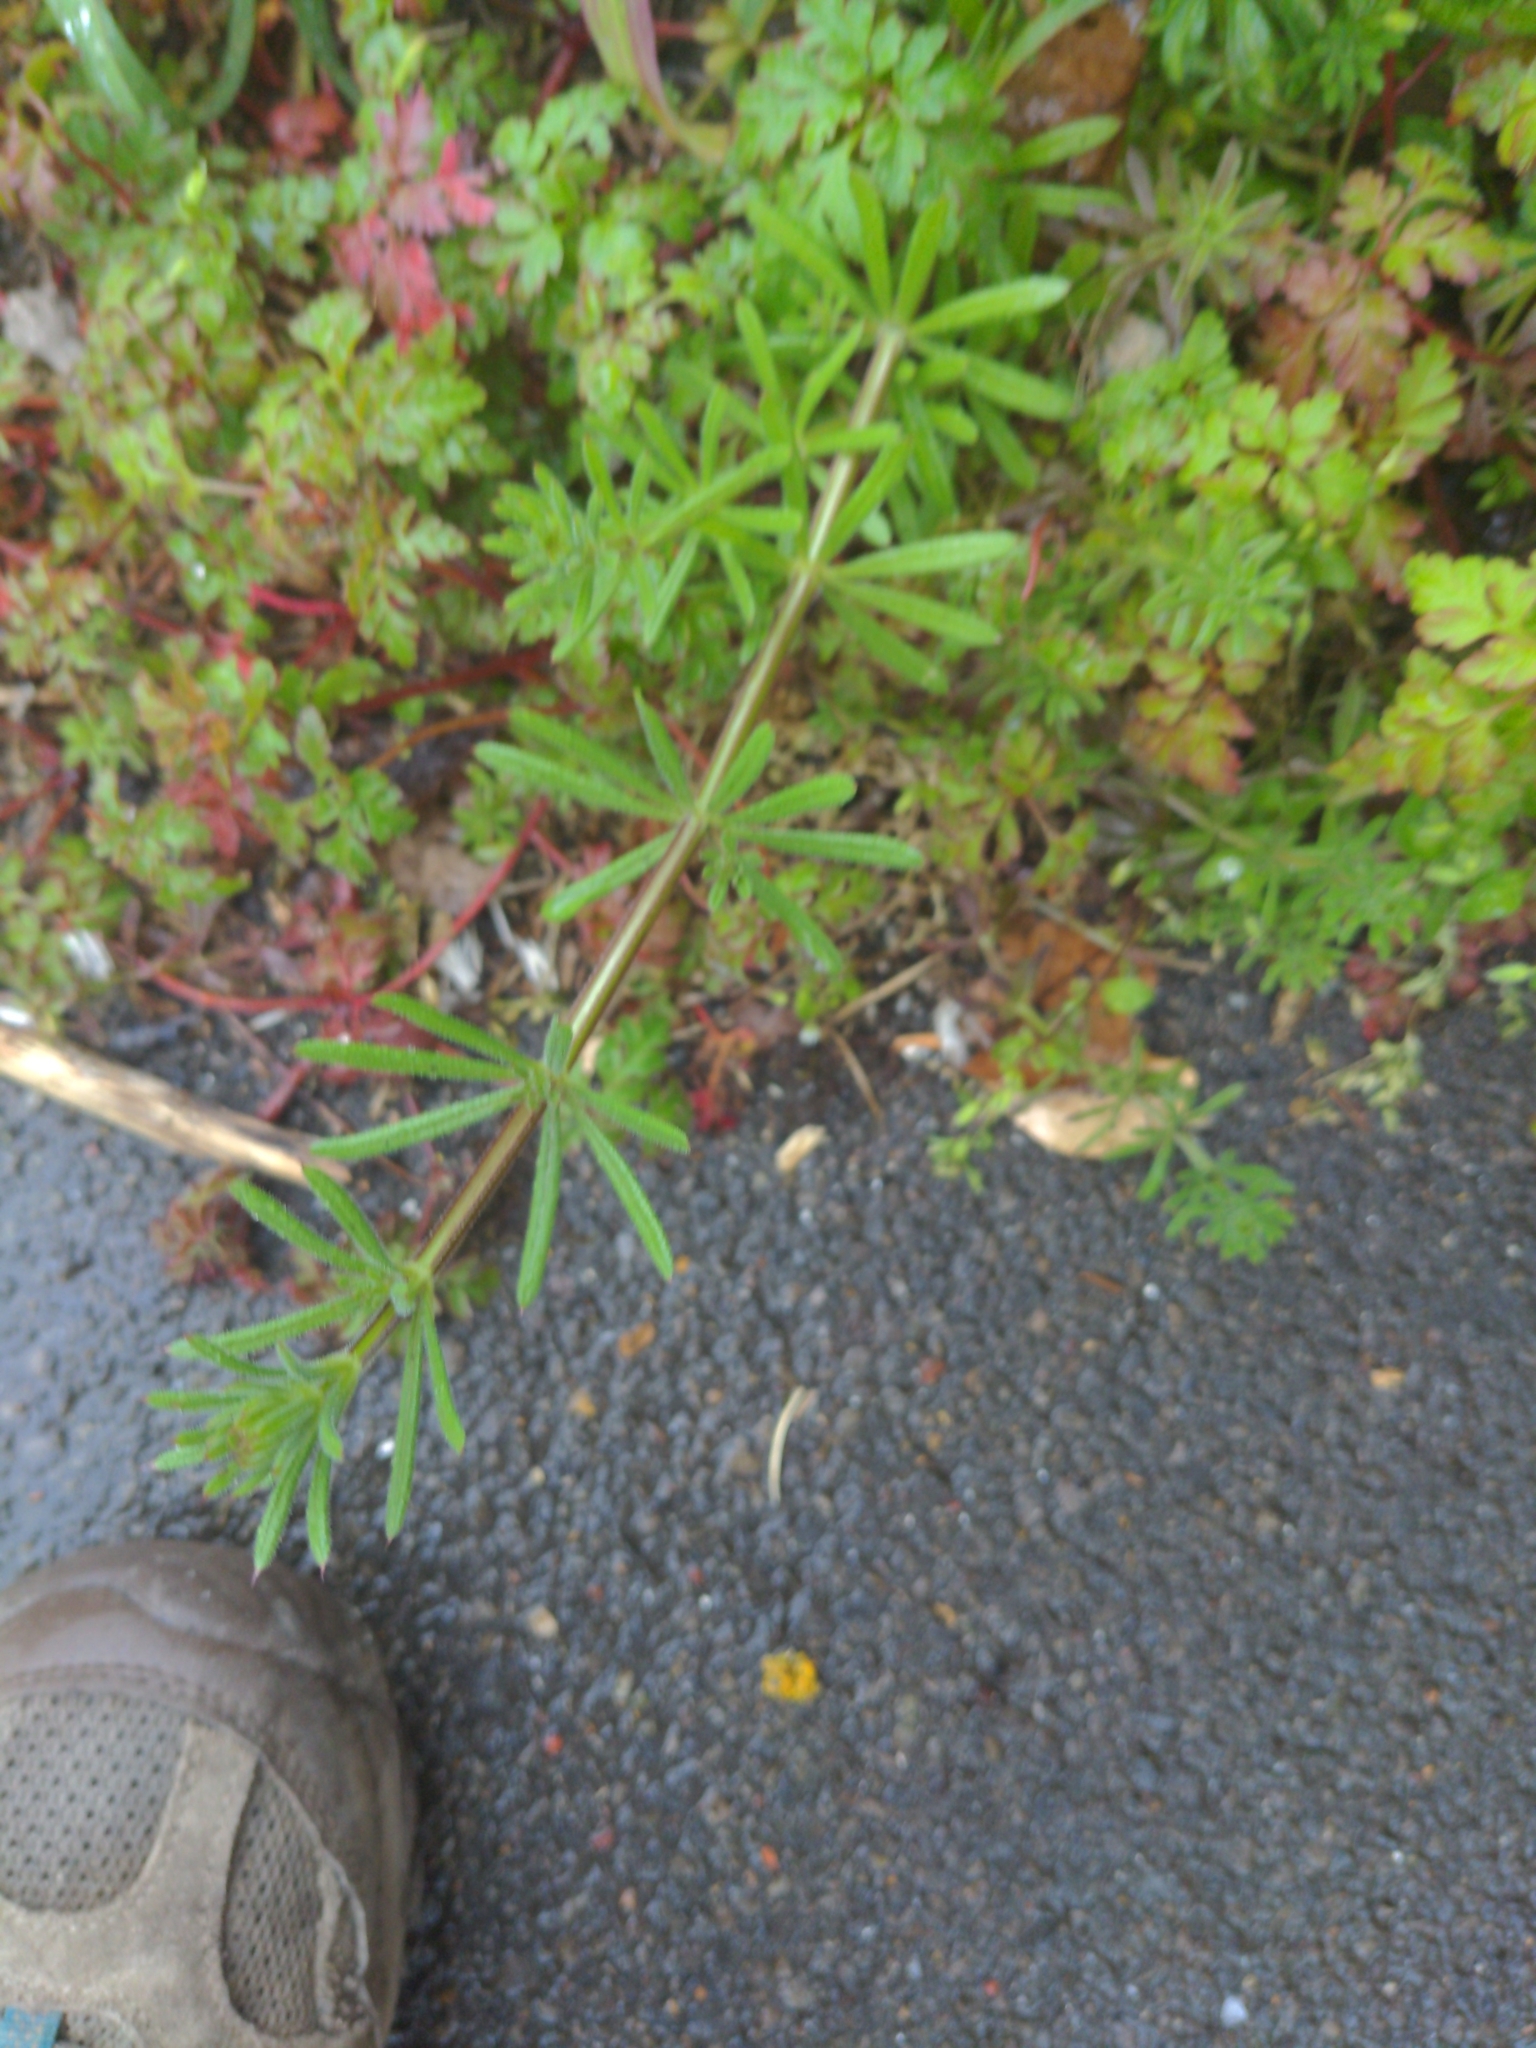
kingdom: Plantae
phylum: Tracheophyta
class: Magnoliopsida
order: Gentianales
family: Rubiaceae
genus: Galium
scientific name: Galium aparine
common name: Cleavers
